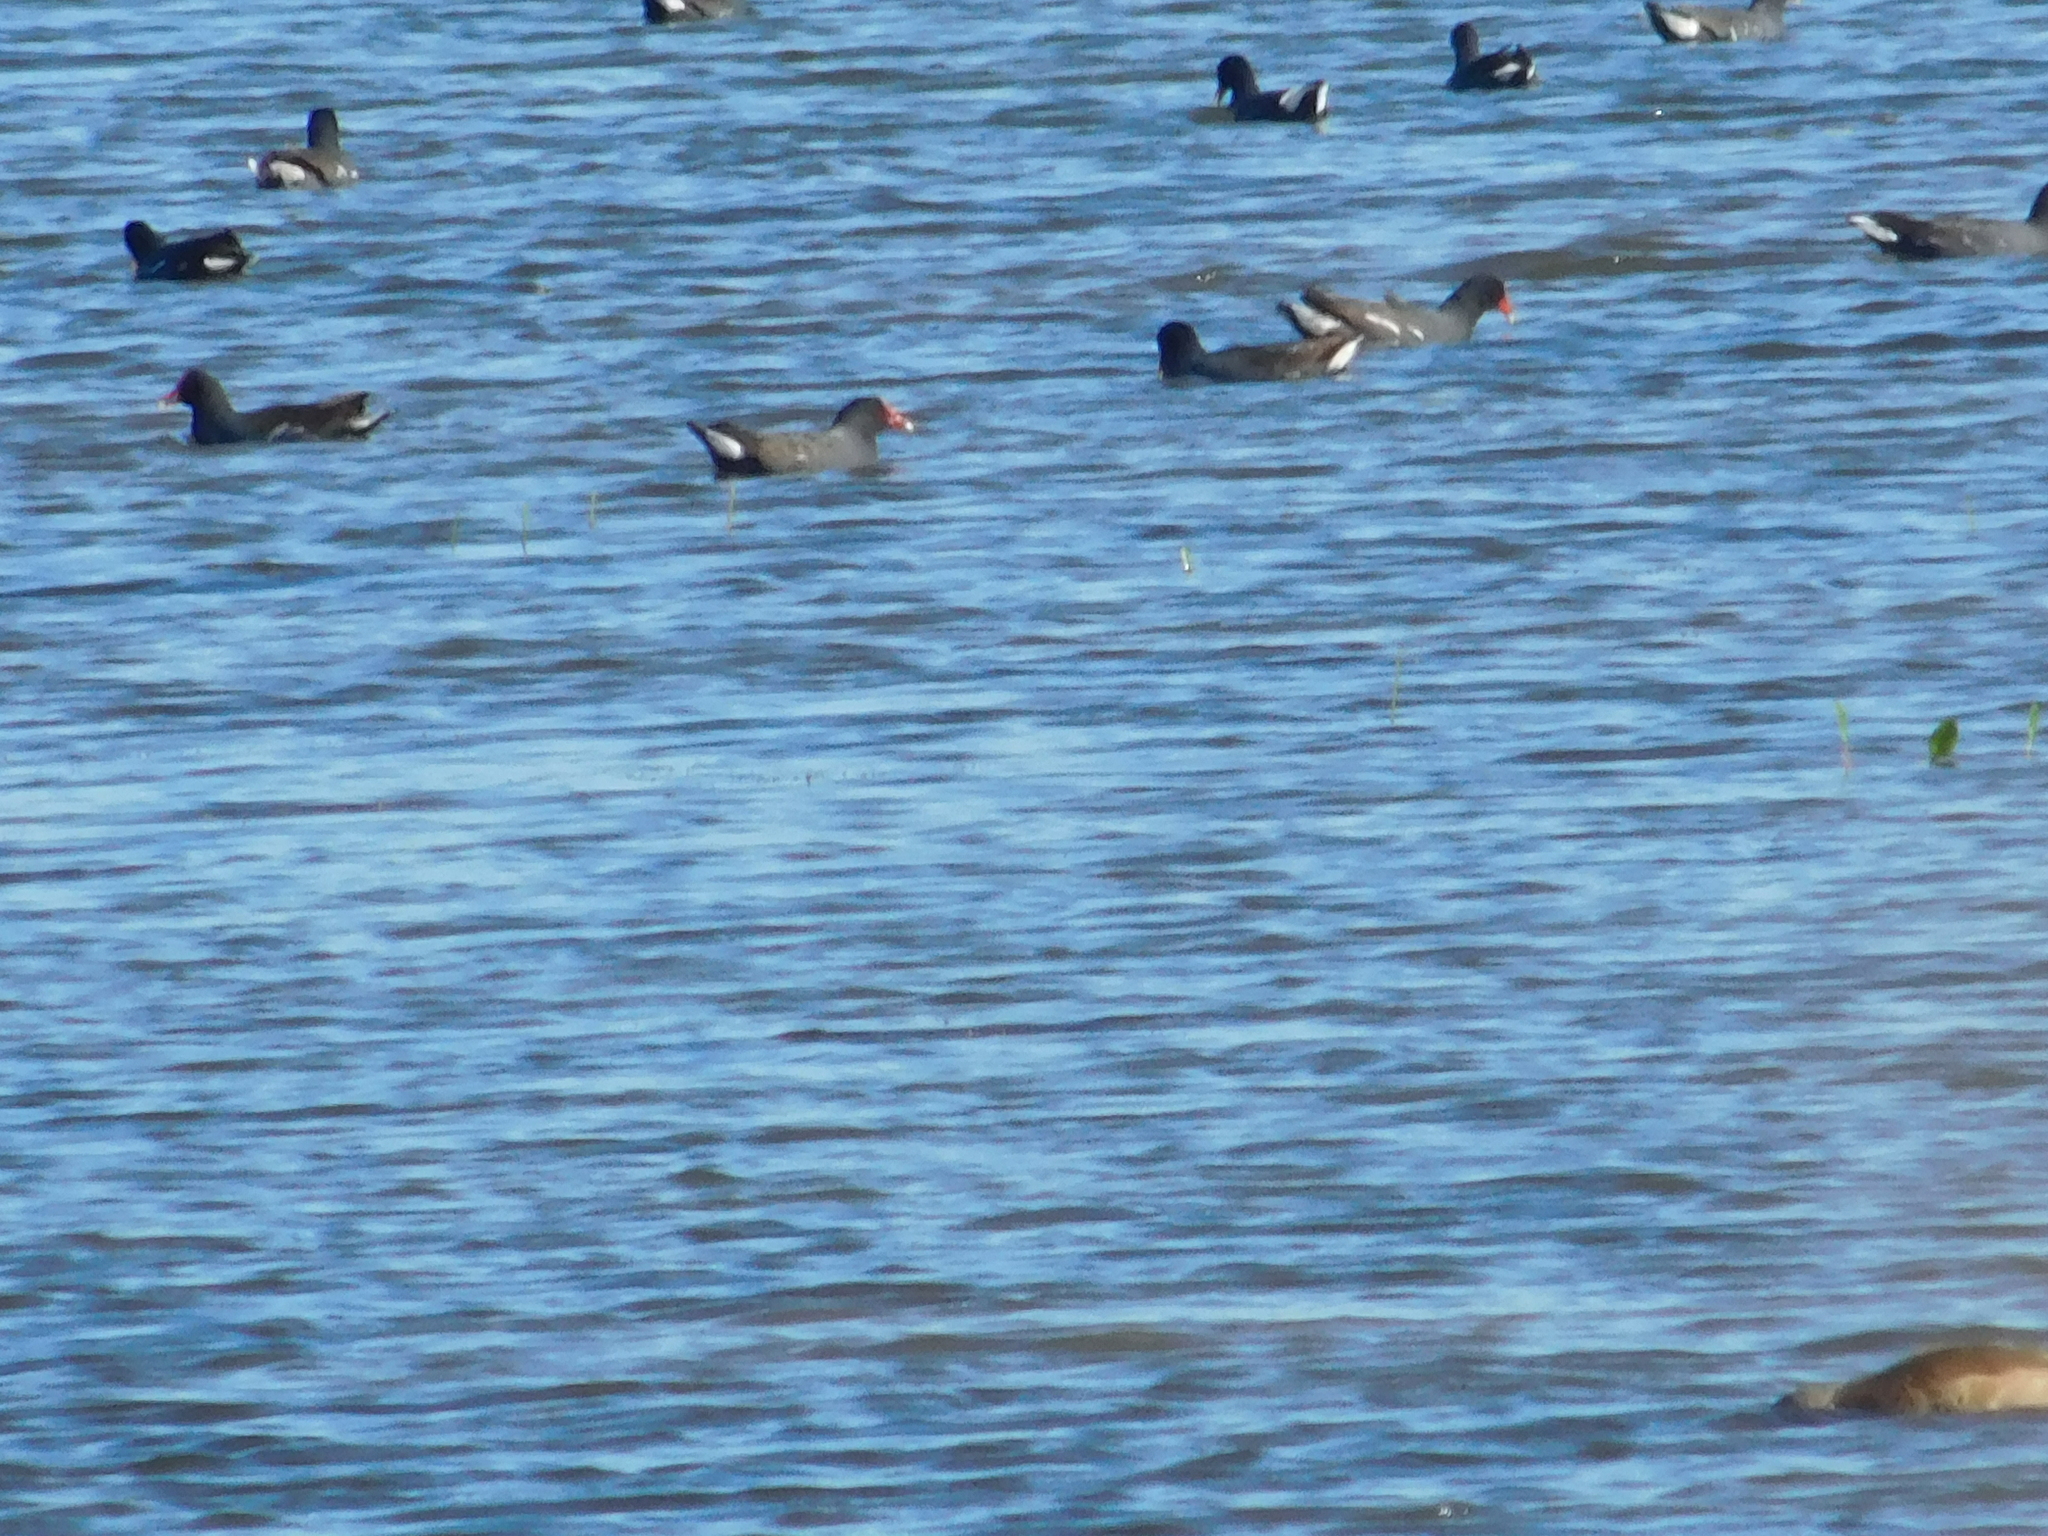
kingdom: Animalia
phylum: Chordata
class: Aves
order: Gruiformes
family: Rallidae
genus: Gallinula
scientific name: Gallinula chloropus
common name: Common moorhen
